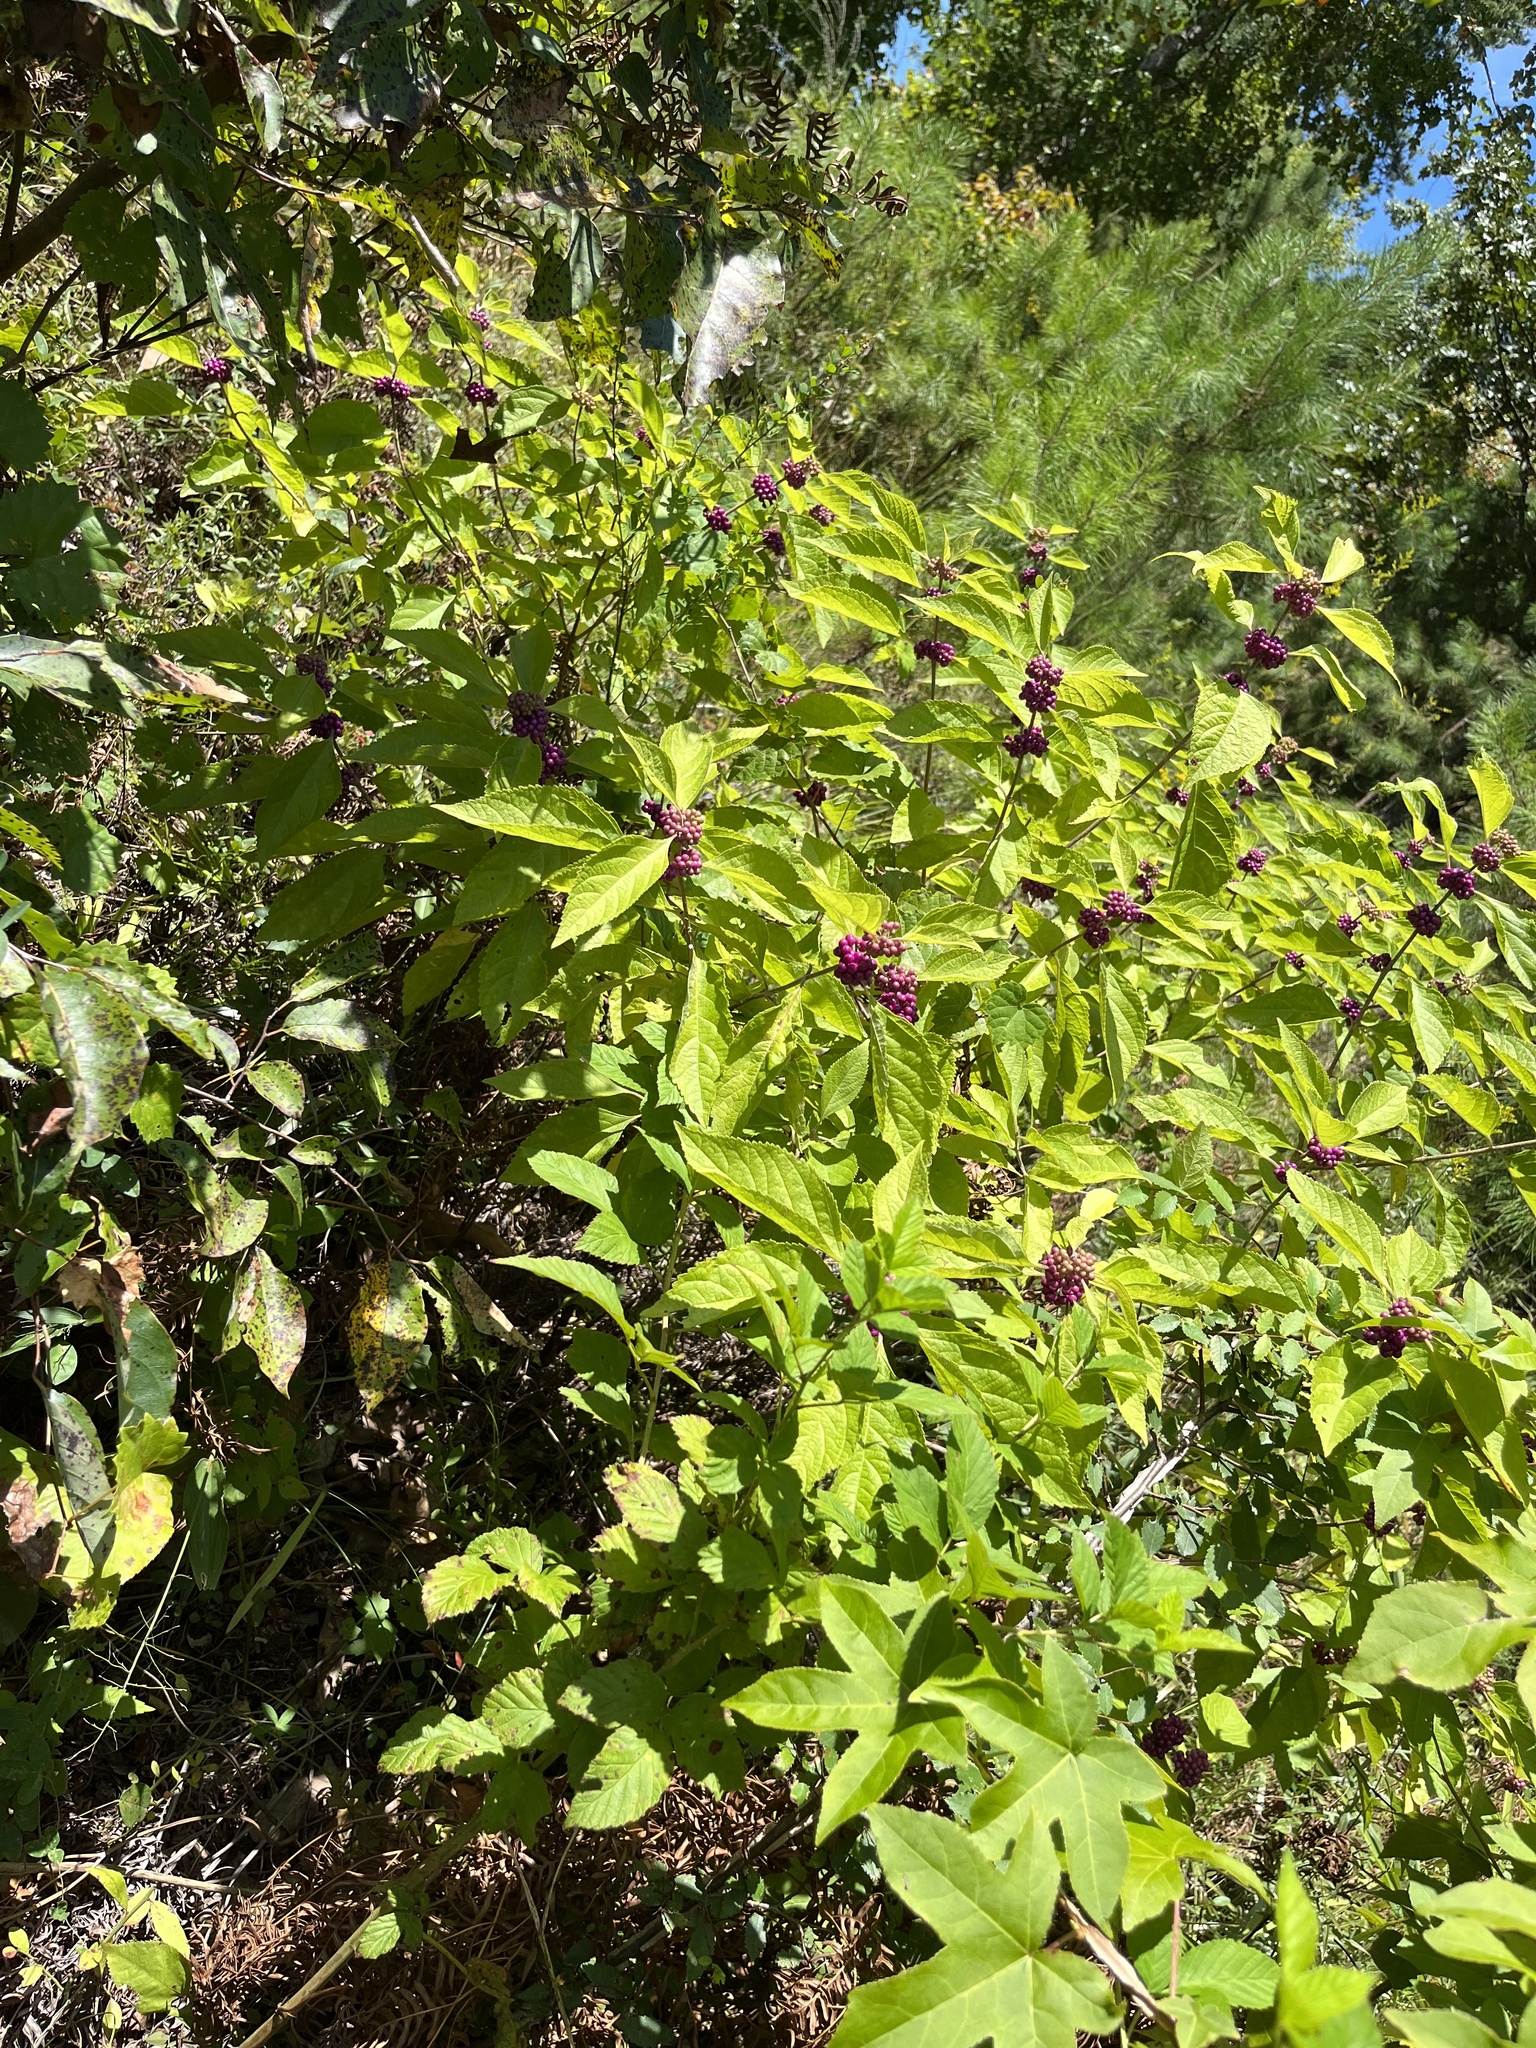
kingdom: Plantae
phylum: Tracheophyta
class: Magnoliopsida
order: Lamiales
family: Lamiaceae
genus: Callicarpa
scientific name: Callicarpa americana
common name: American beautyberry
